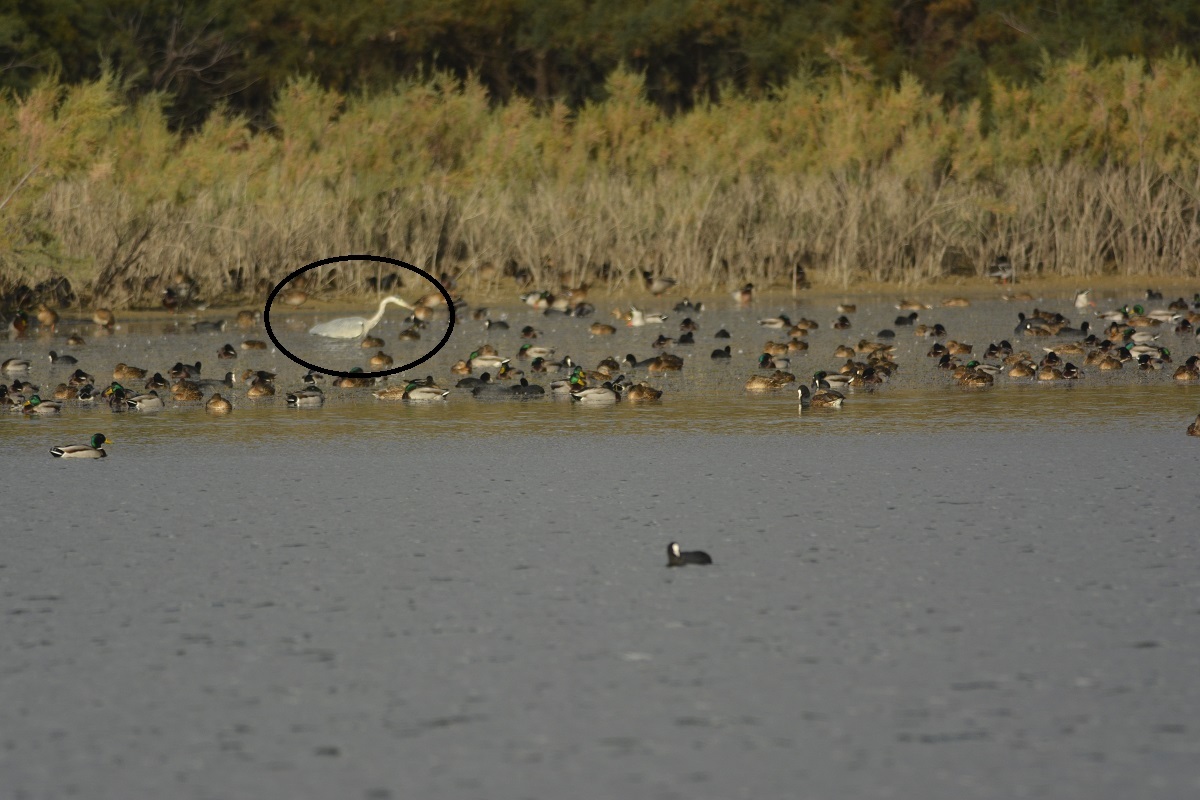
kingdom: Animalia
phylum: Chordata
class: Aves
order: Pelecaniformes
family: Ardeidae
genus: Ardea
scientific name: Ardea cinerea
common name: Grey heron
